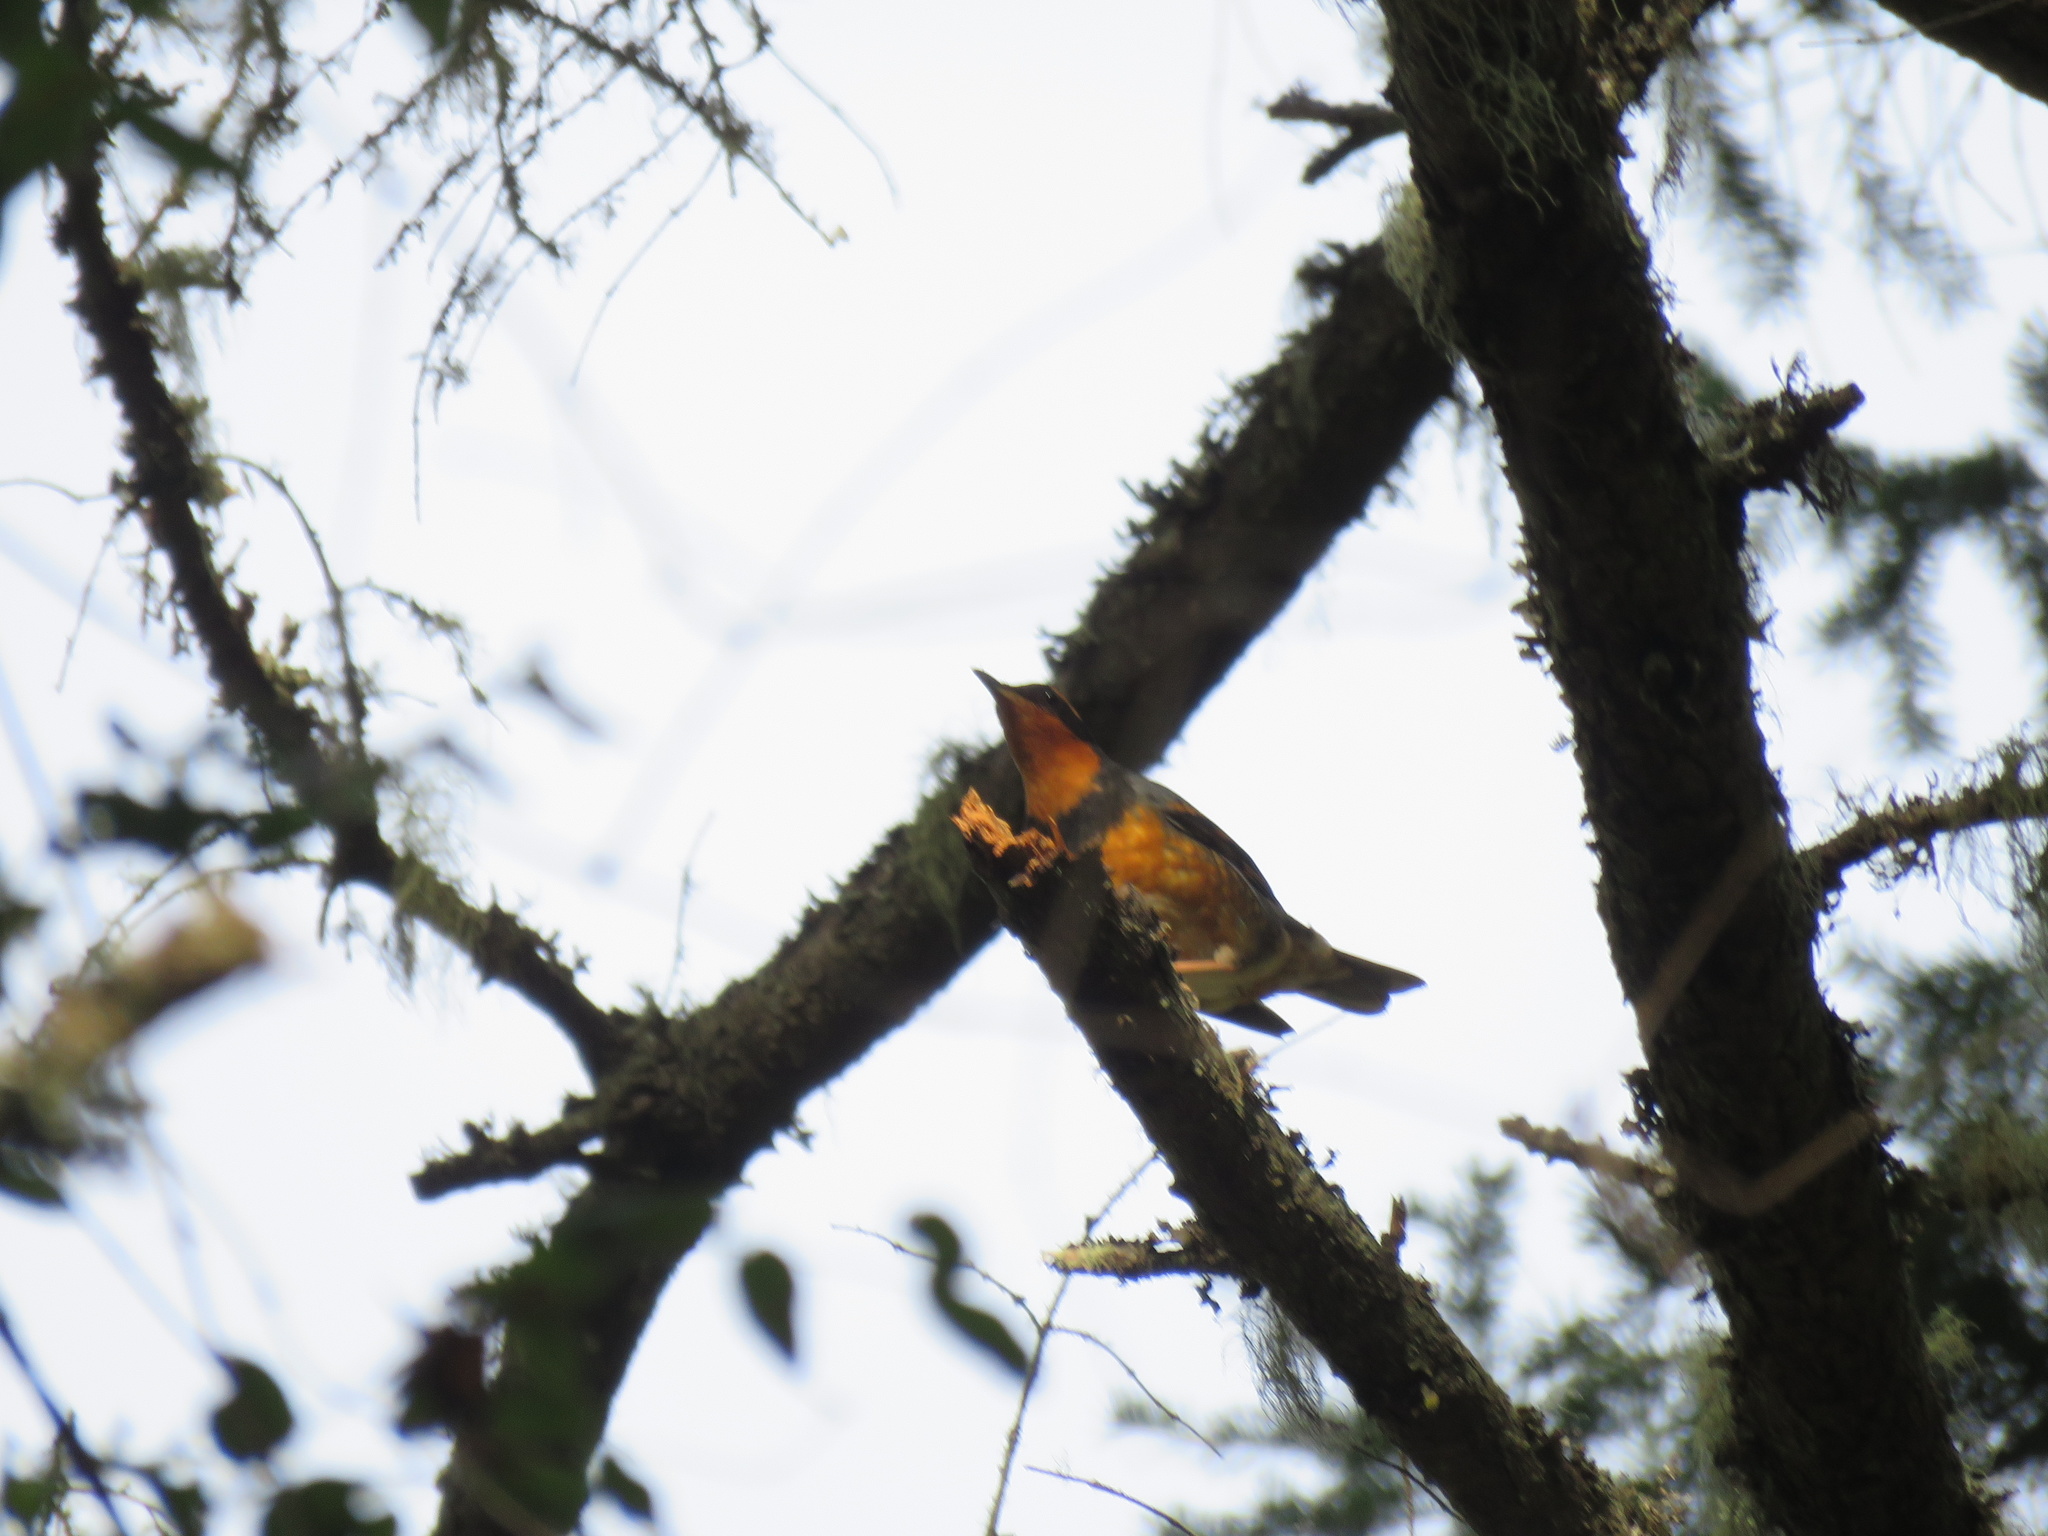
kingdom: Animalia
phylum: Chordata
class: Aves
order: Passeriformes
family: Turdidae
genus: Ixoreus
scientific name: Ixoreus naevius
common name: Varied thrush
